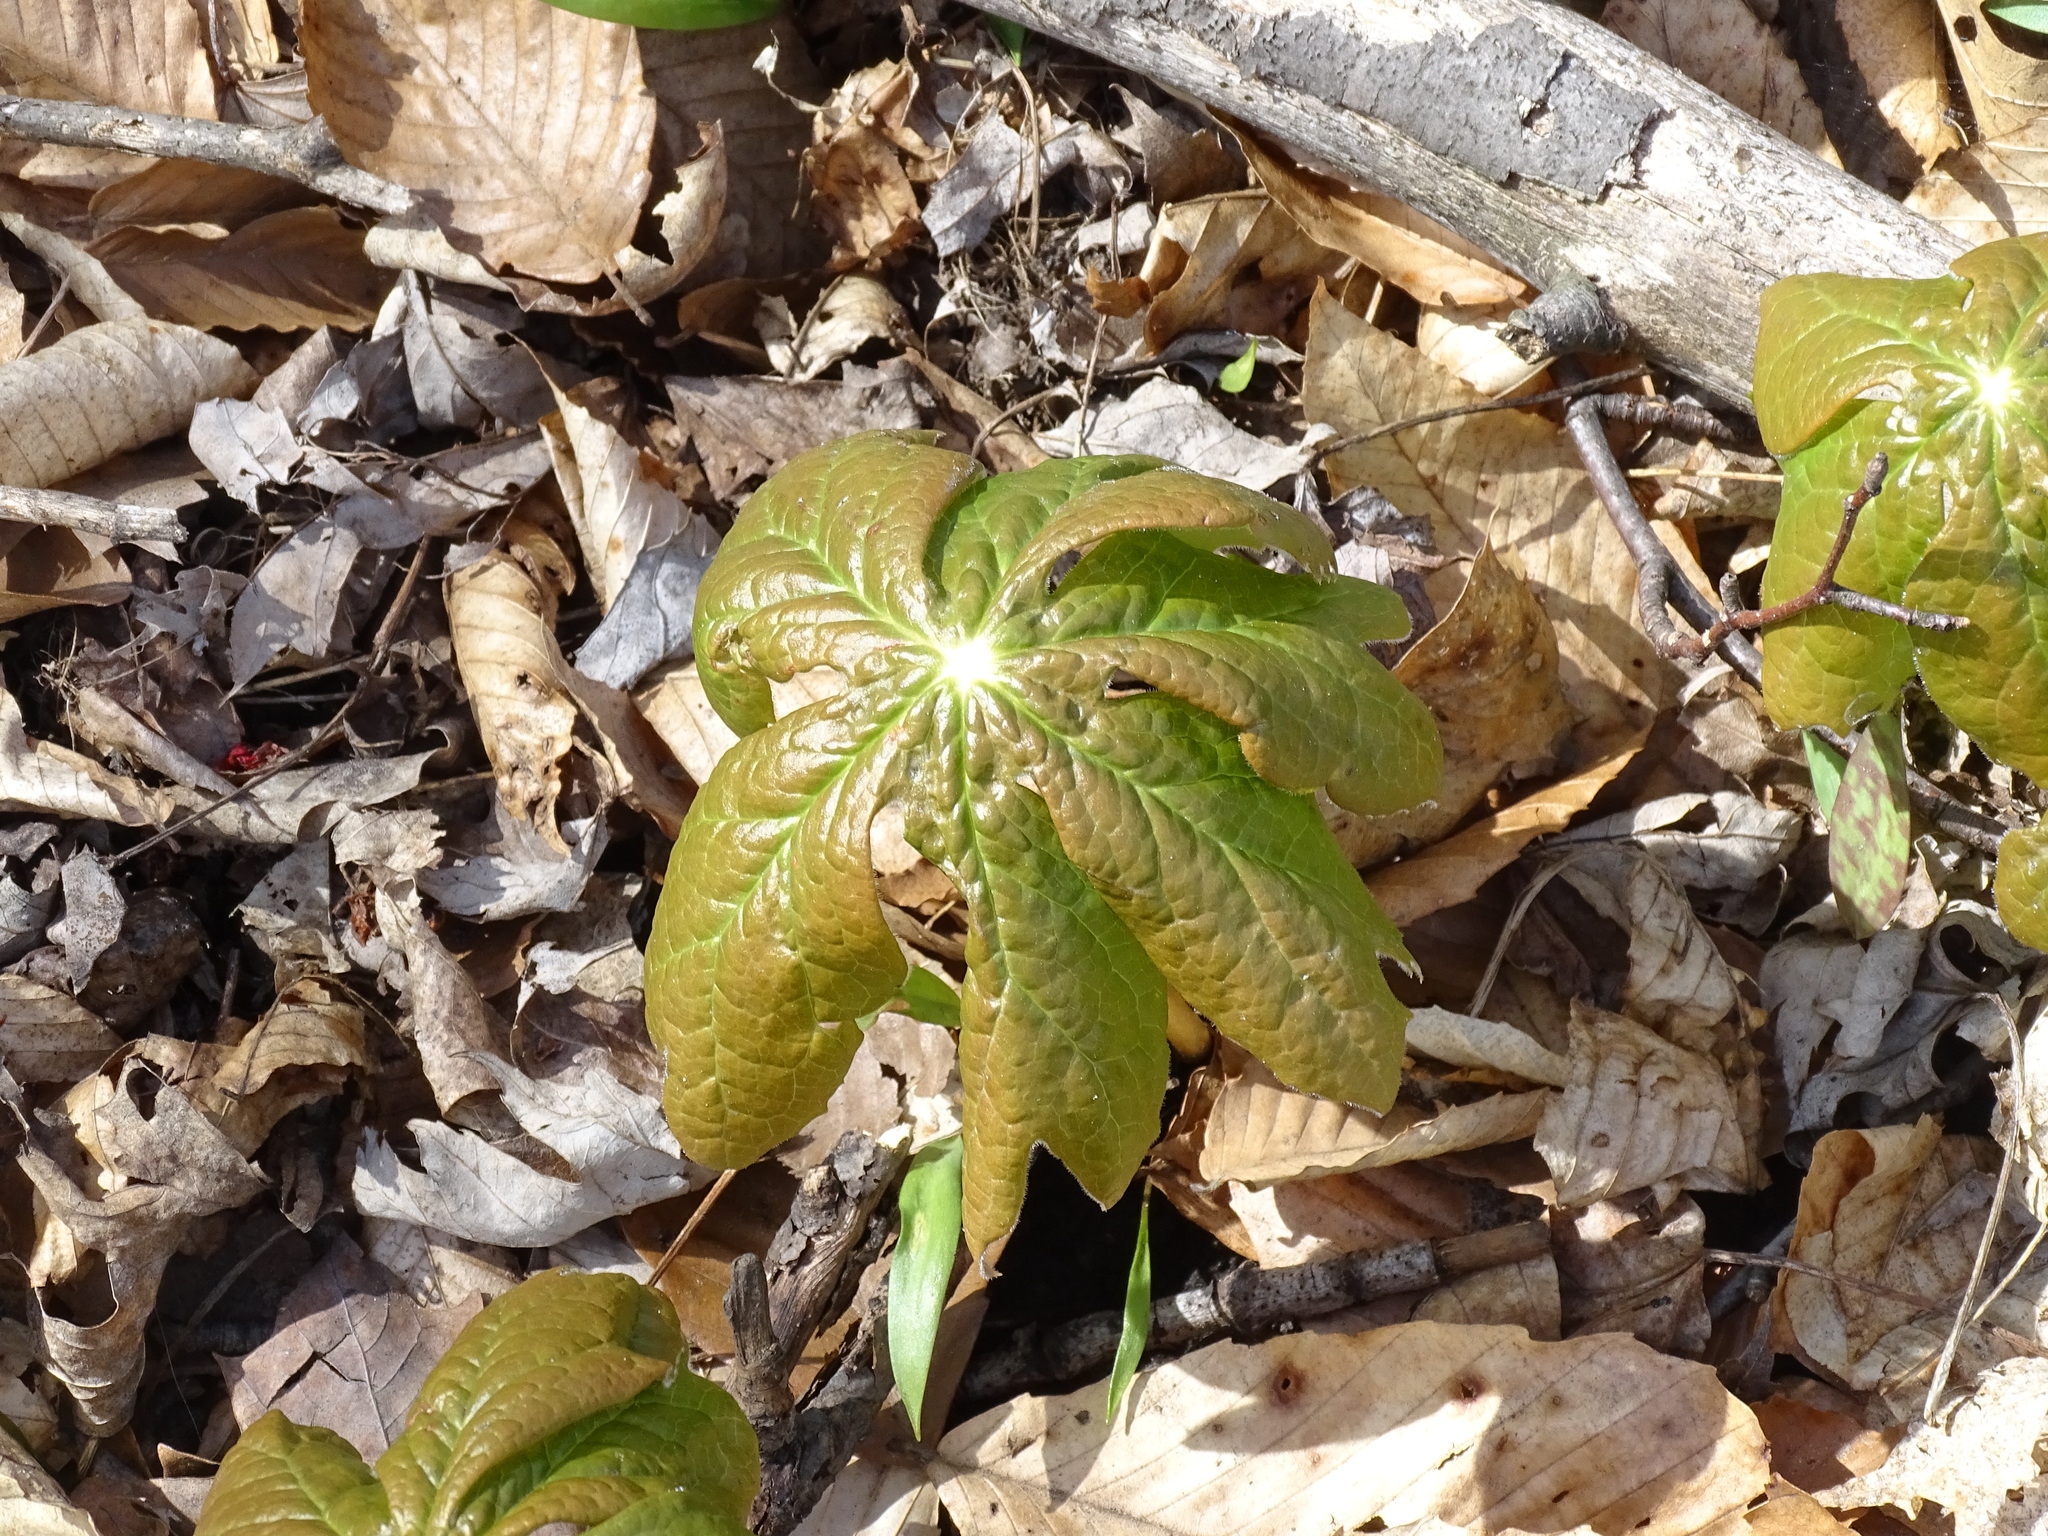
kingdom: Plantae
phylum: Tracheophyta
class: Magnoliopsida
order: Ranunculales
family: Berberidaceae
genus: Podophyllum
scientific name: Podophyllum peltatum
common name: Wild mandrake
